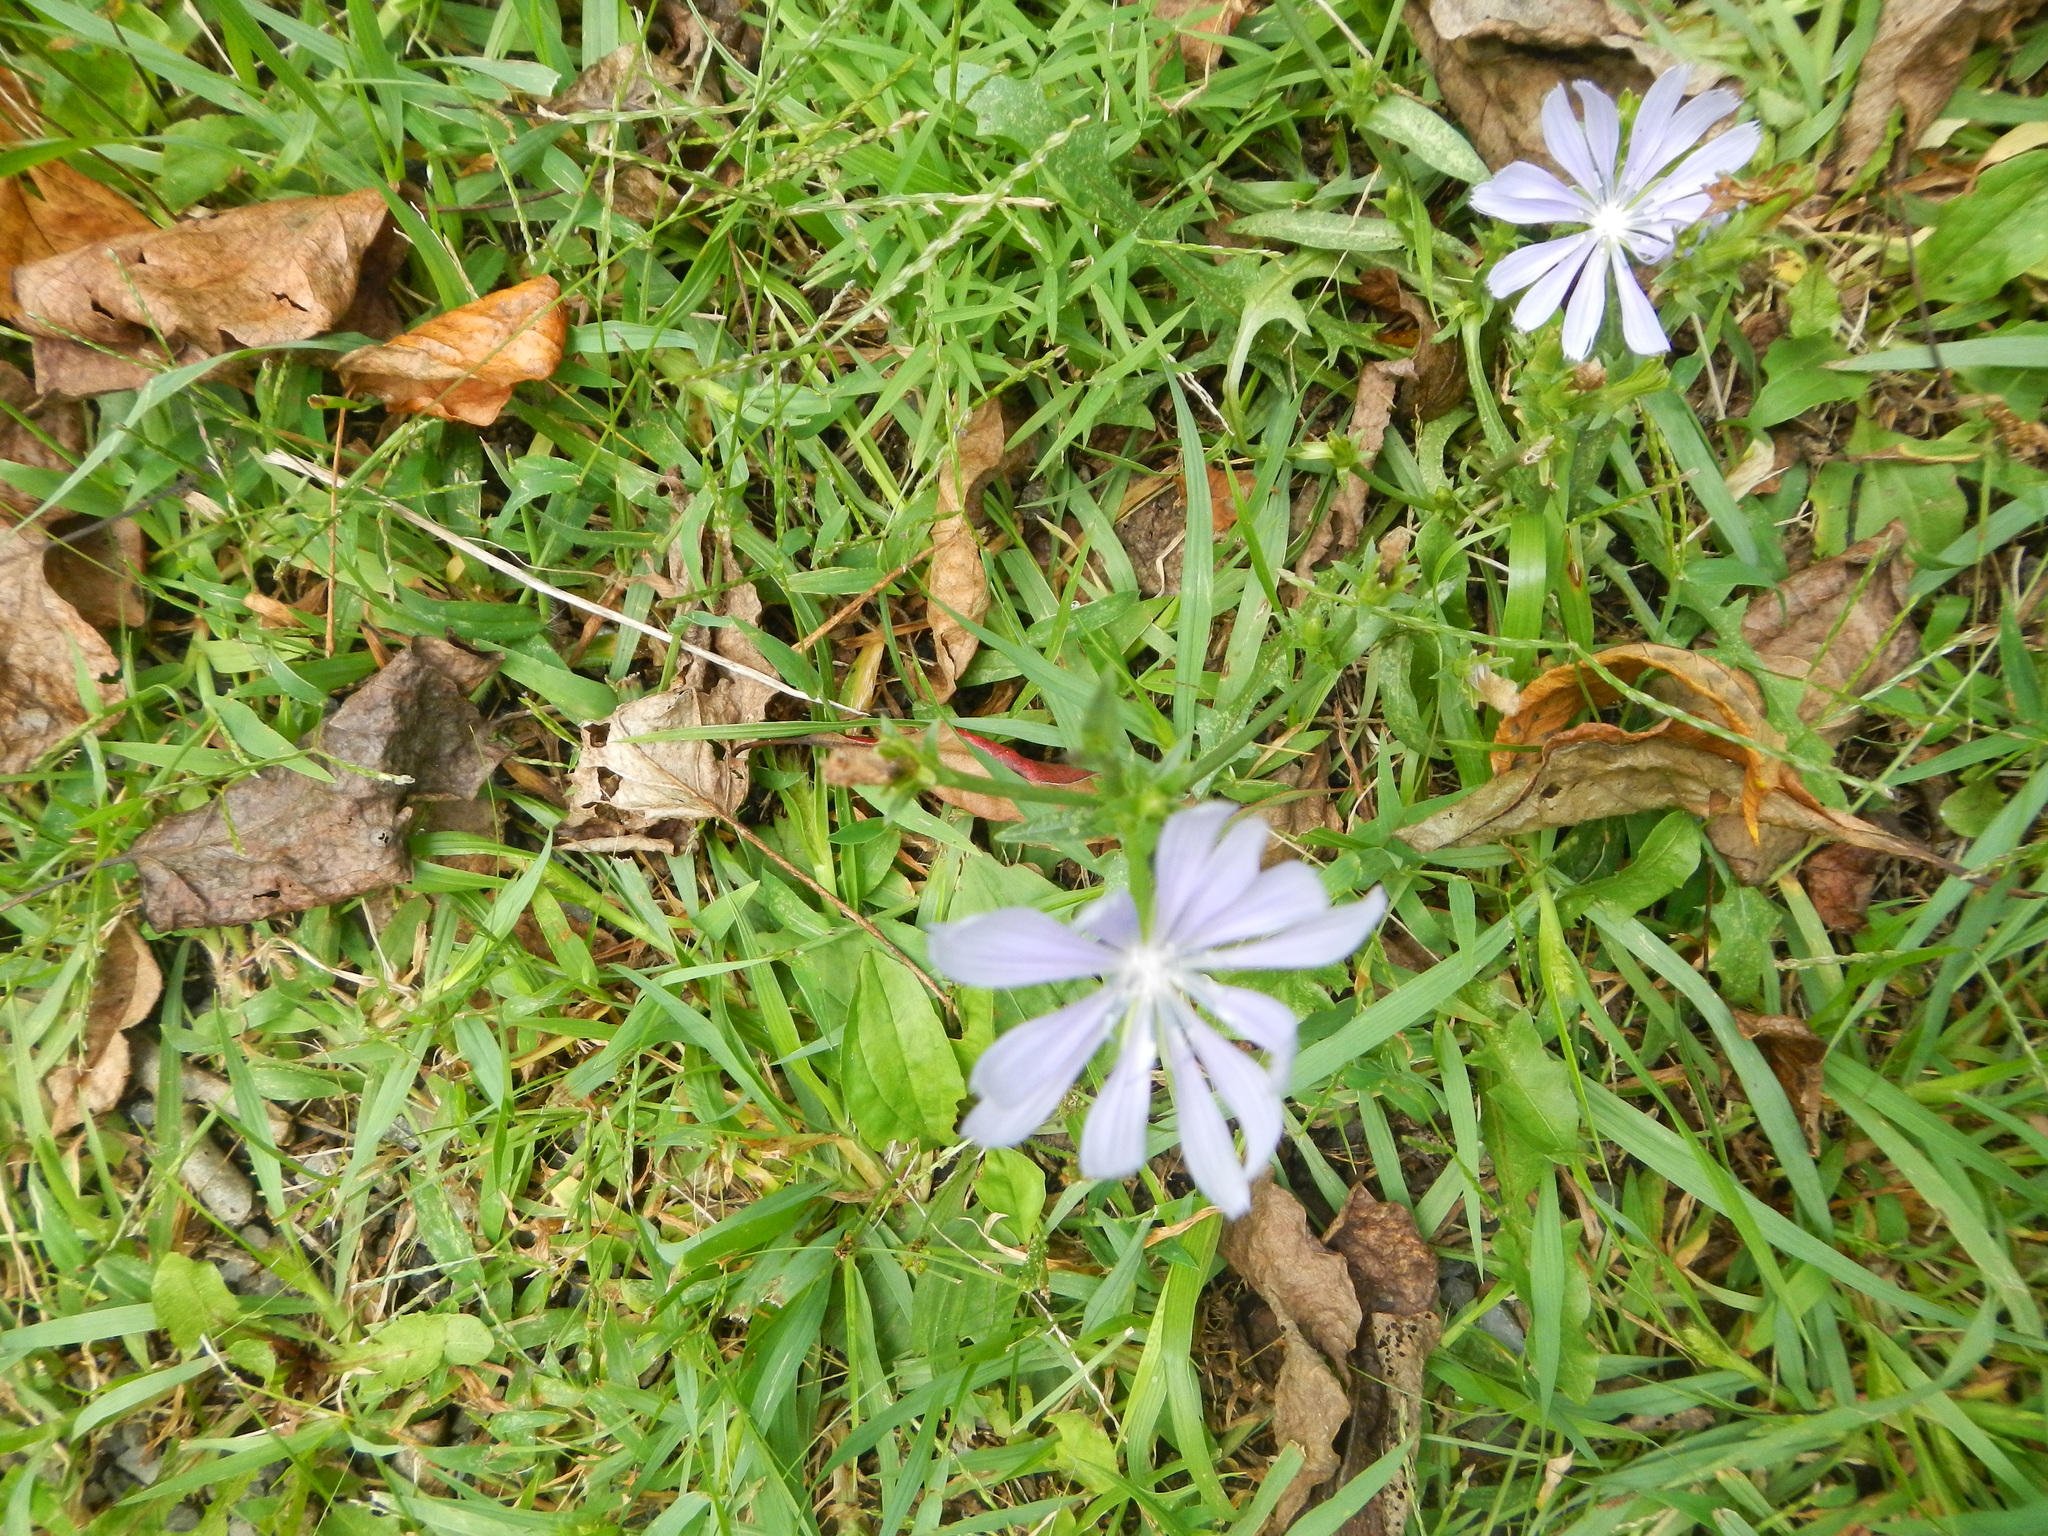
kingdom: Plantae
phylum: Tracheophyta
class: Magnoliopsida
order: Asterales
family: Asteraceae
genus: Cichorium
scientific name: Cichorium intybus
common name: Chicory
